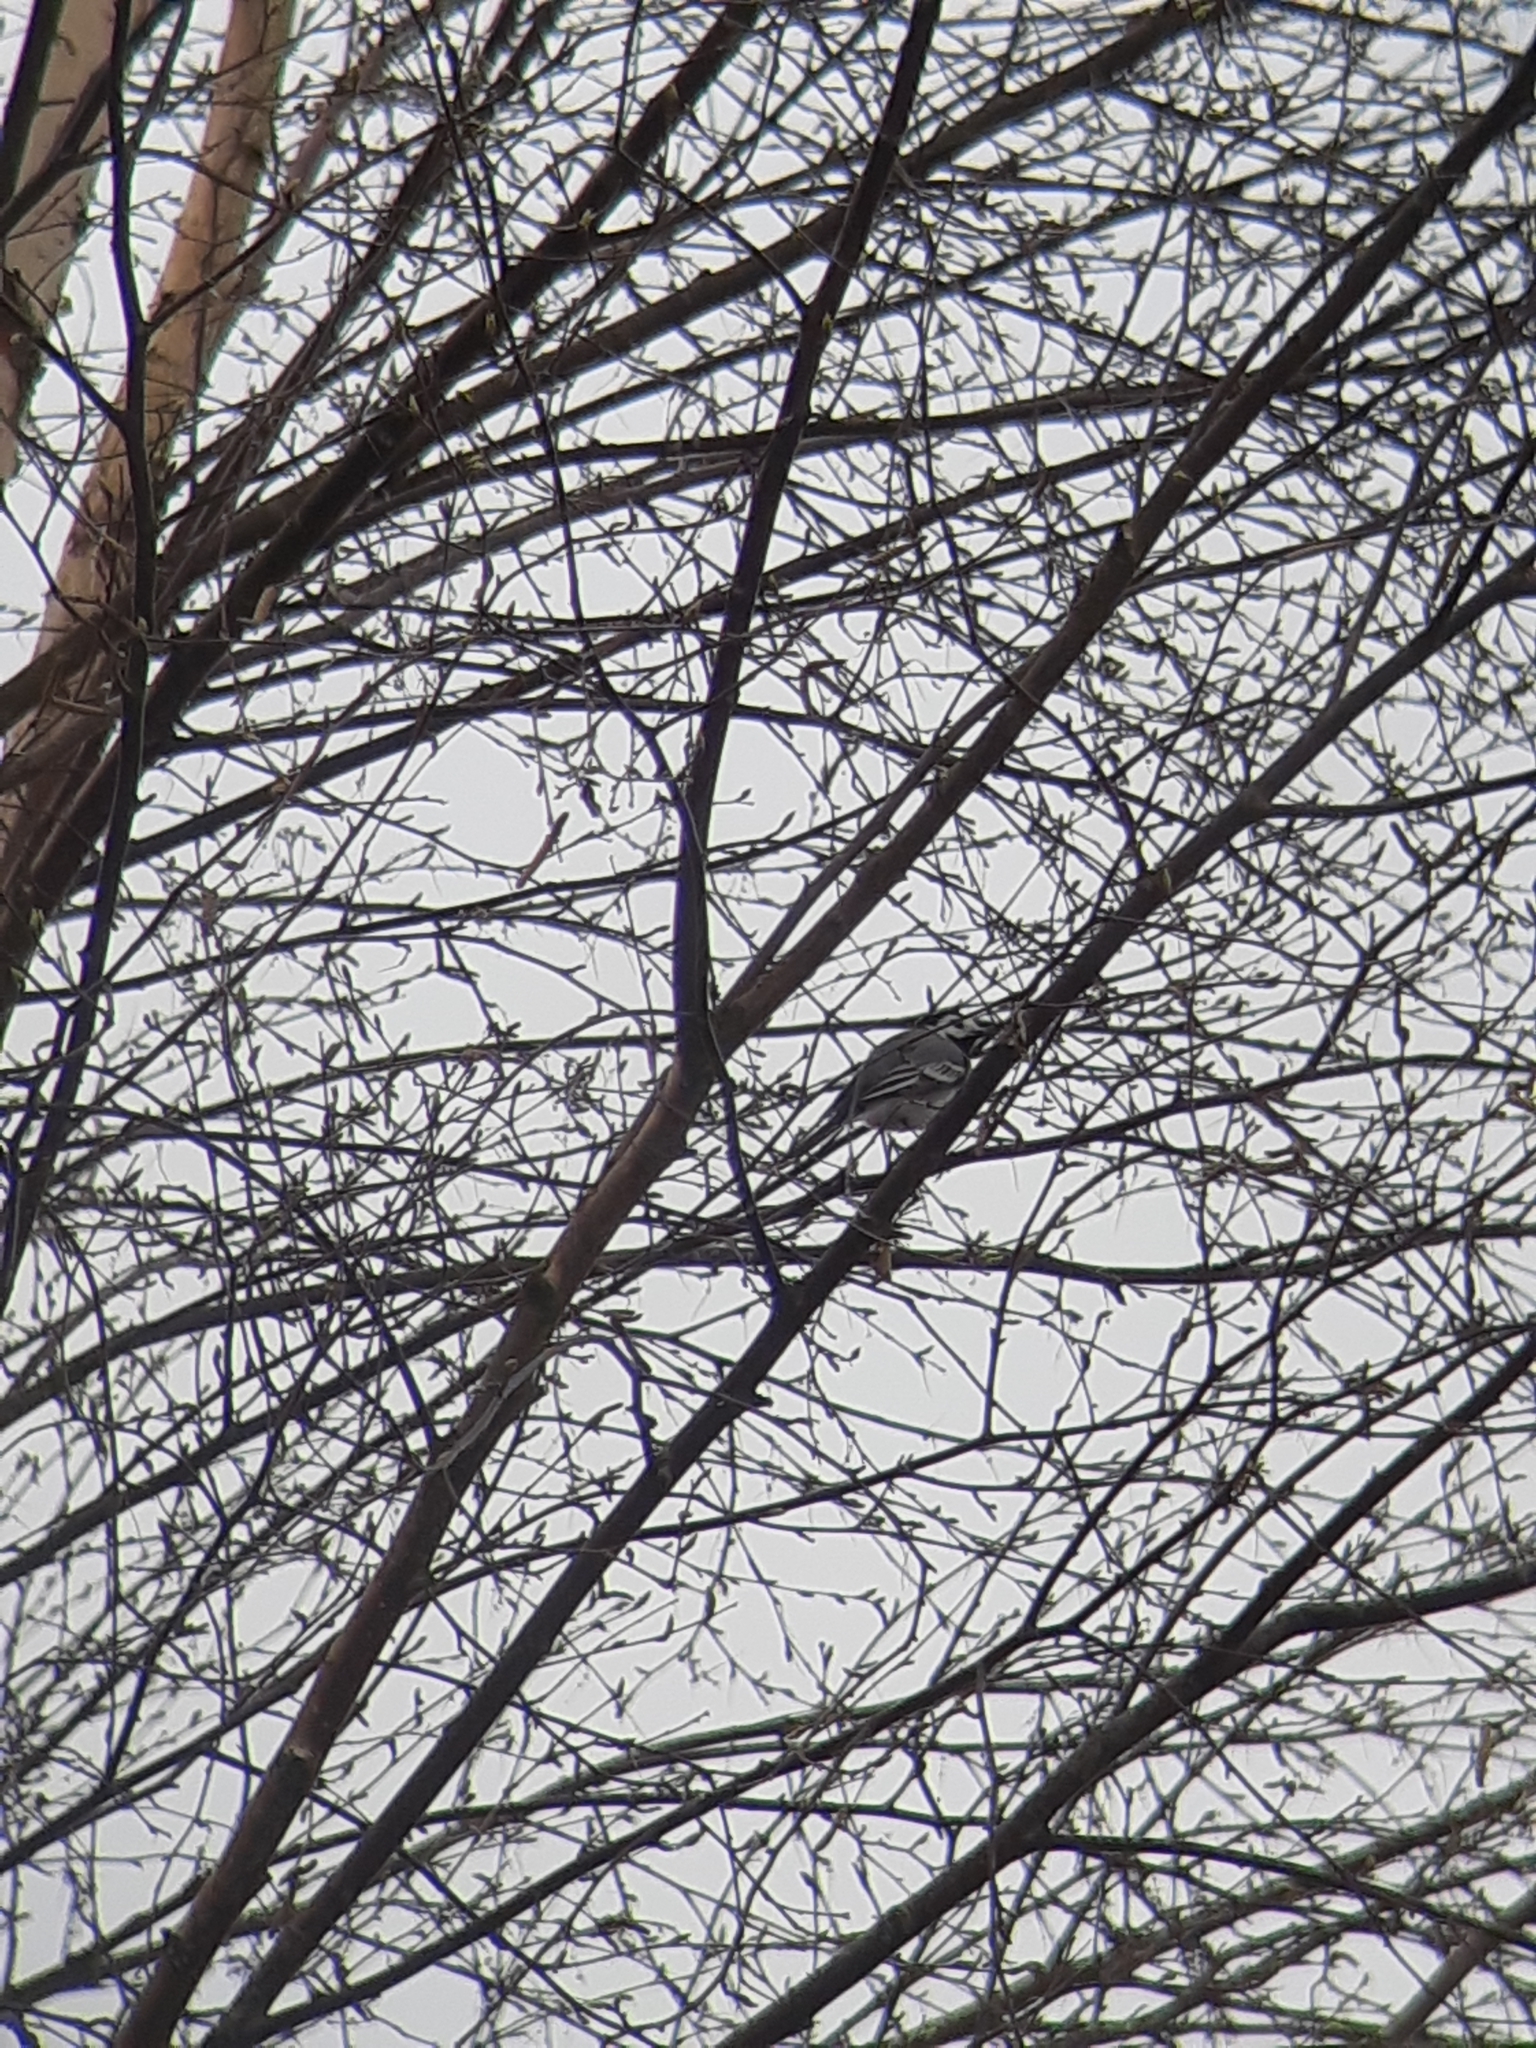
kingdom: Animalia
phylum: Chordata
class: Aves
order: Passeriformes
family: Motacillidae
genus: Motacilla
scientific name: Motacilla alba
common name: White wagtail
